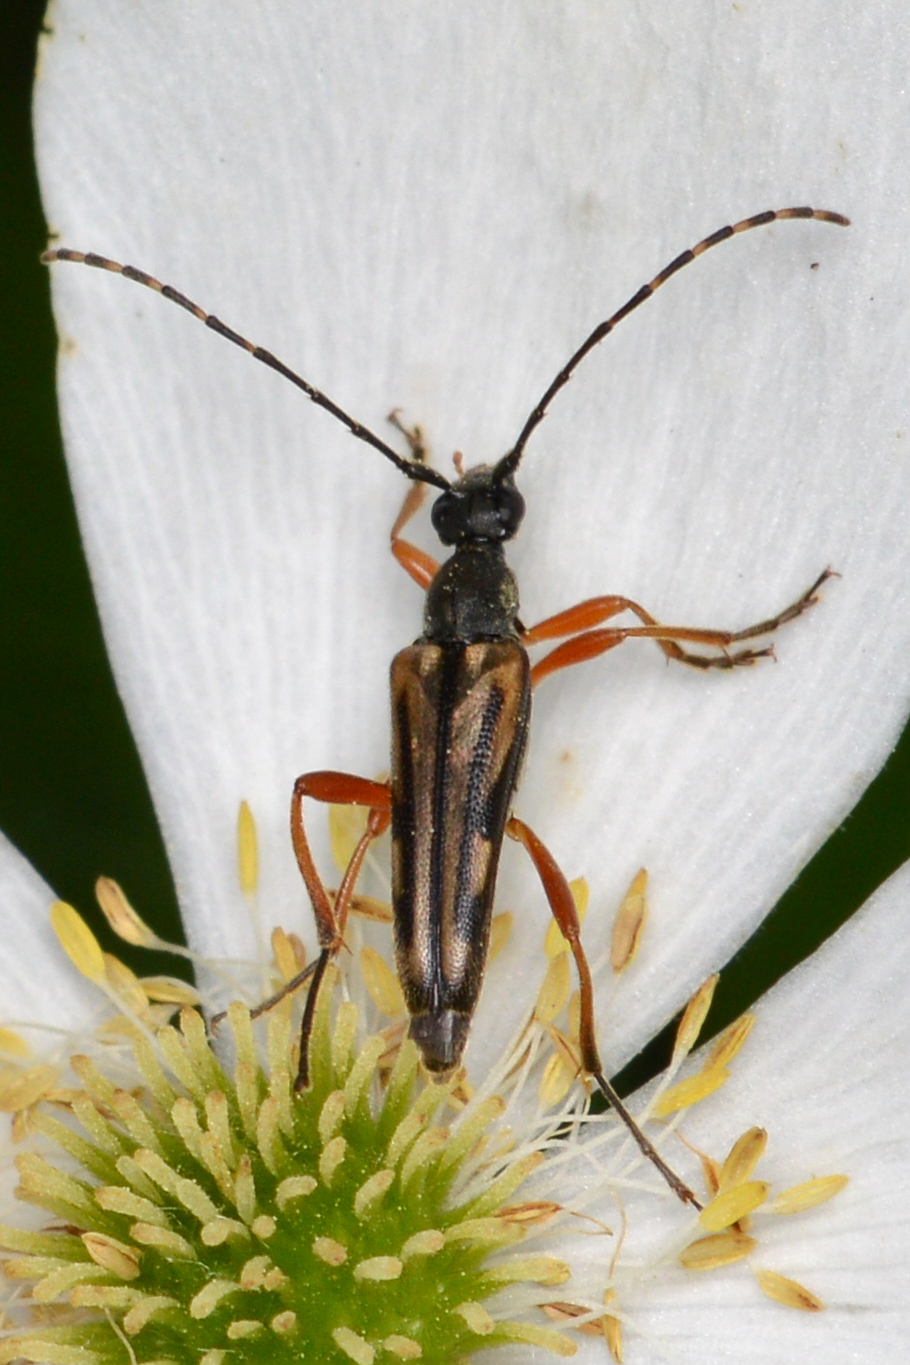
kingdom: Animalia
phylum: Arthropoda
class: Insecta
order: Coleoptera
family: Cerambycidae
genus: Analeptura
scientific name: Analeptura lineola
